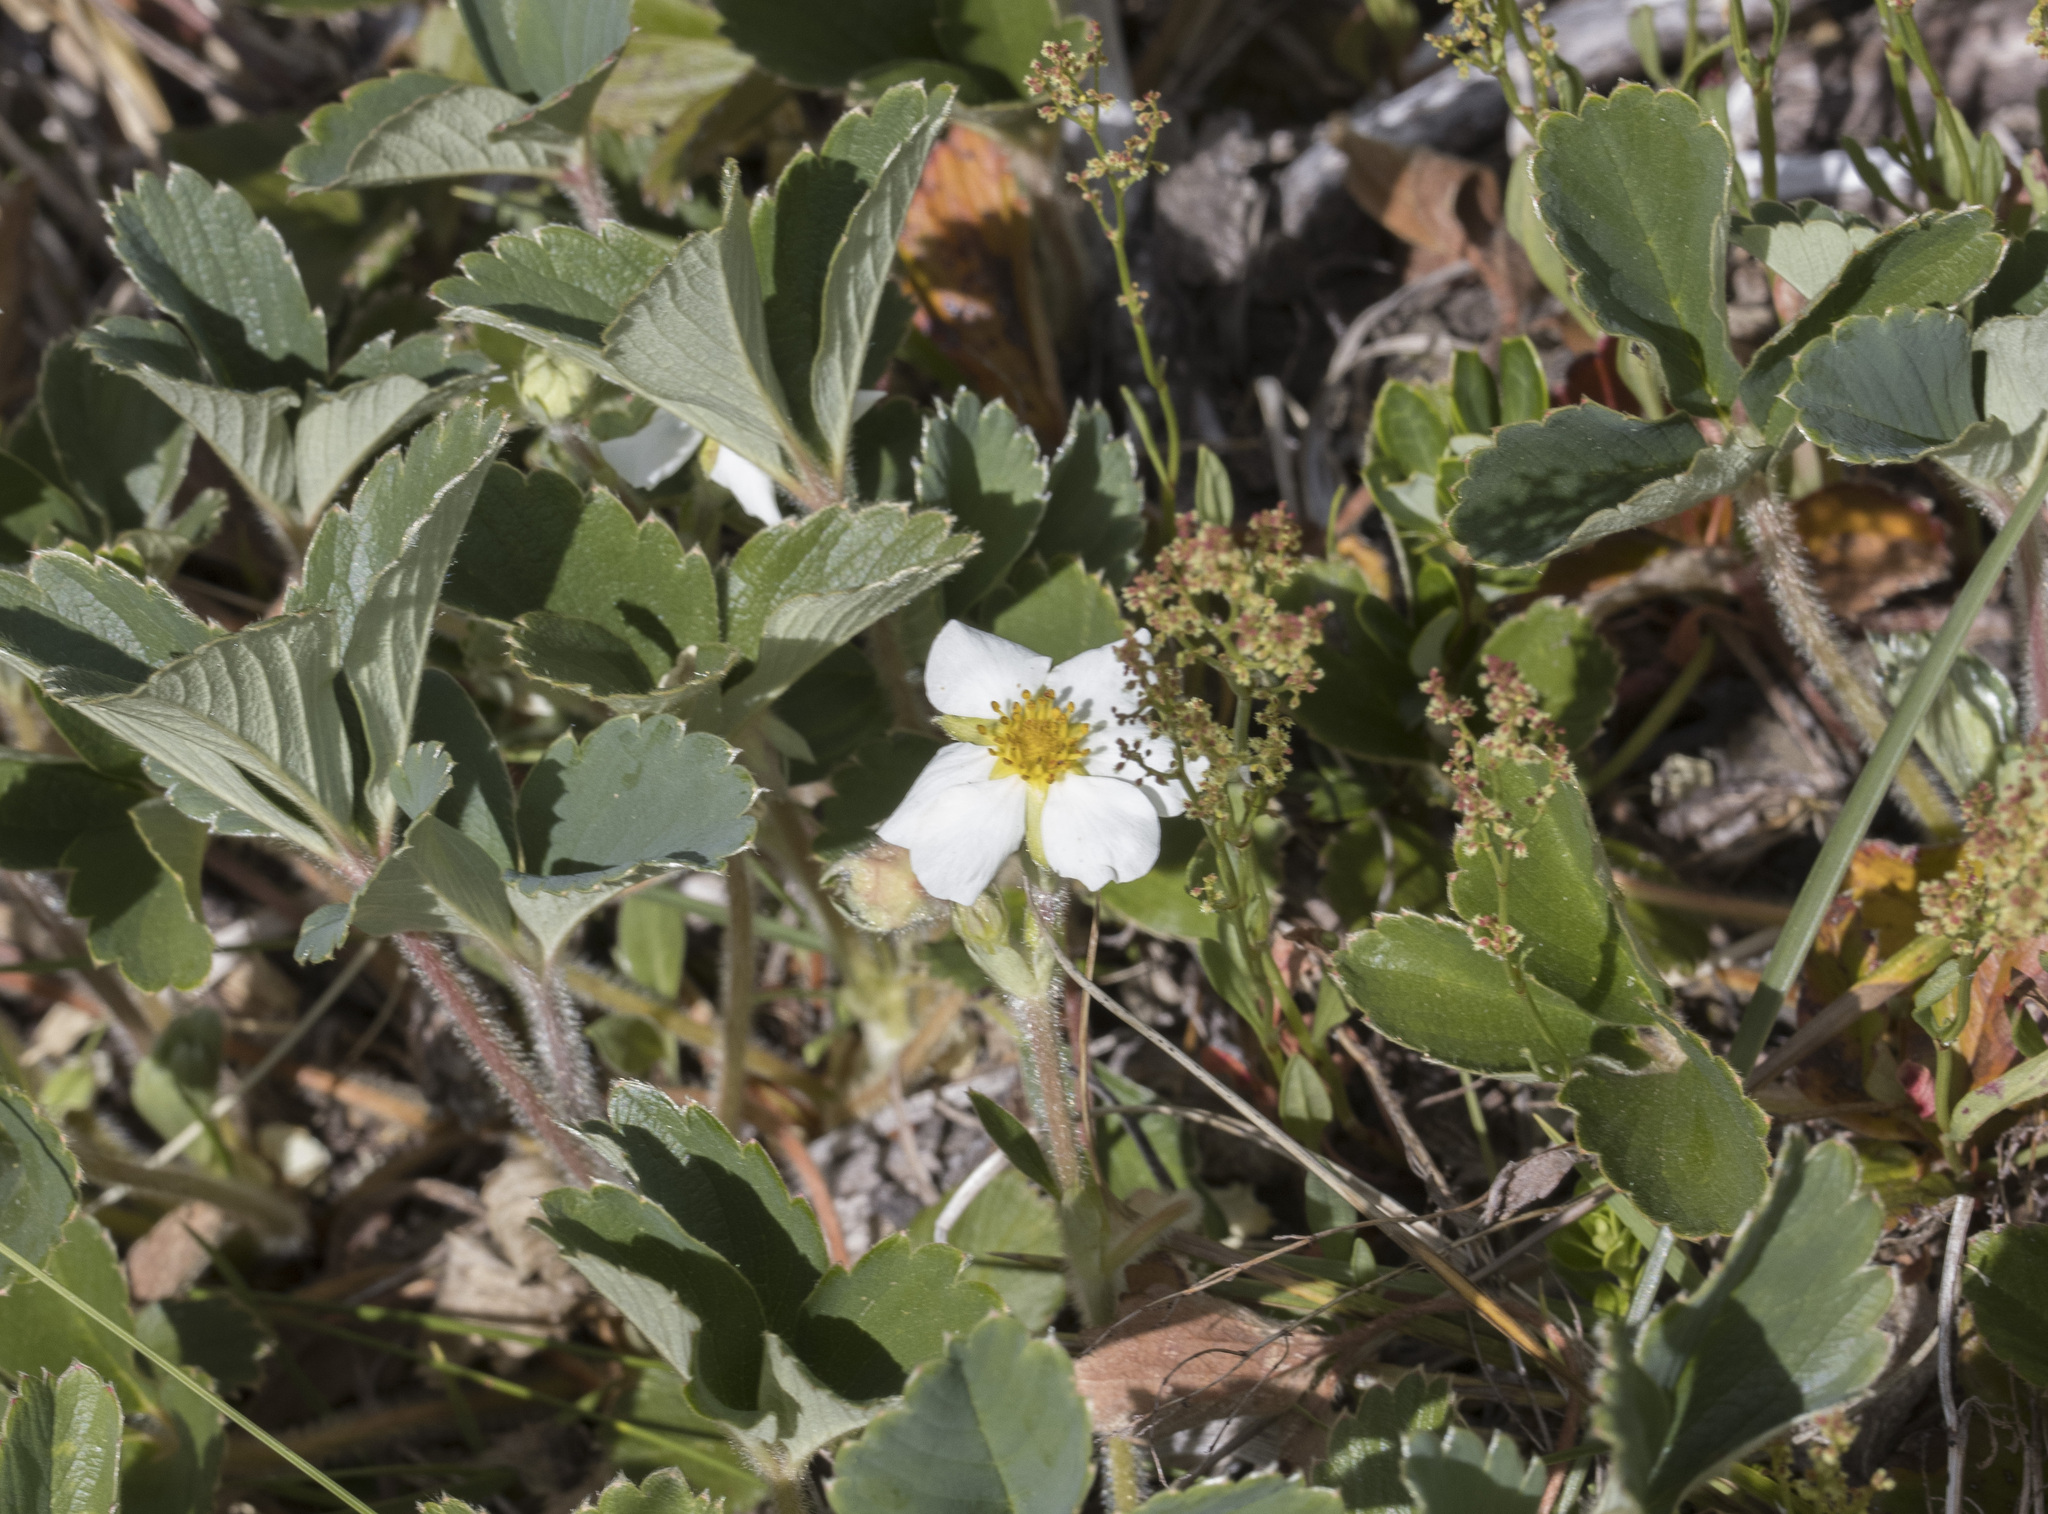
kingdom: Plantae
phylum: Tracheophyta
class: Magnoliopsida
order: Rosales
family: Rosaceae
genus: Fragaria
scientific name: Fragaria chiloensis
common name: Beach strawberry
